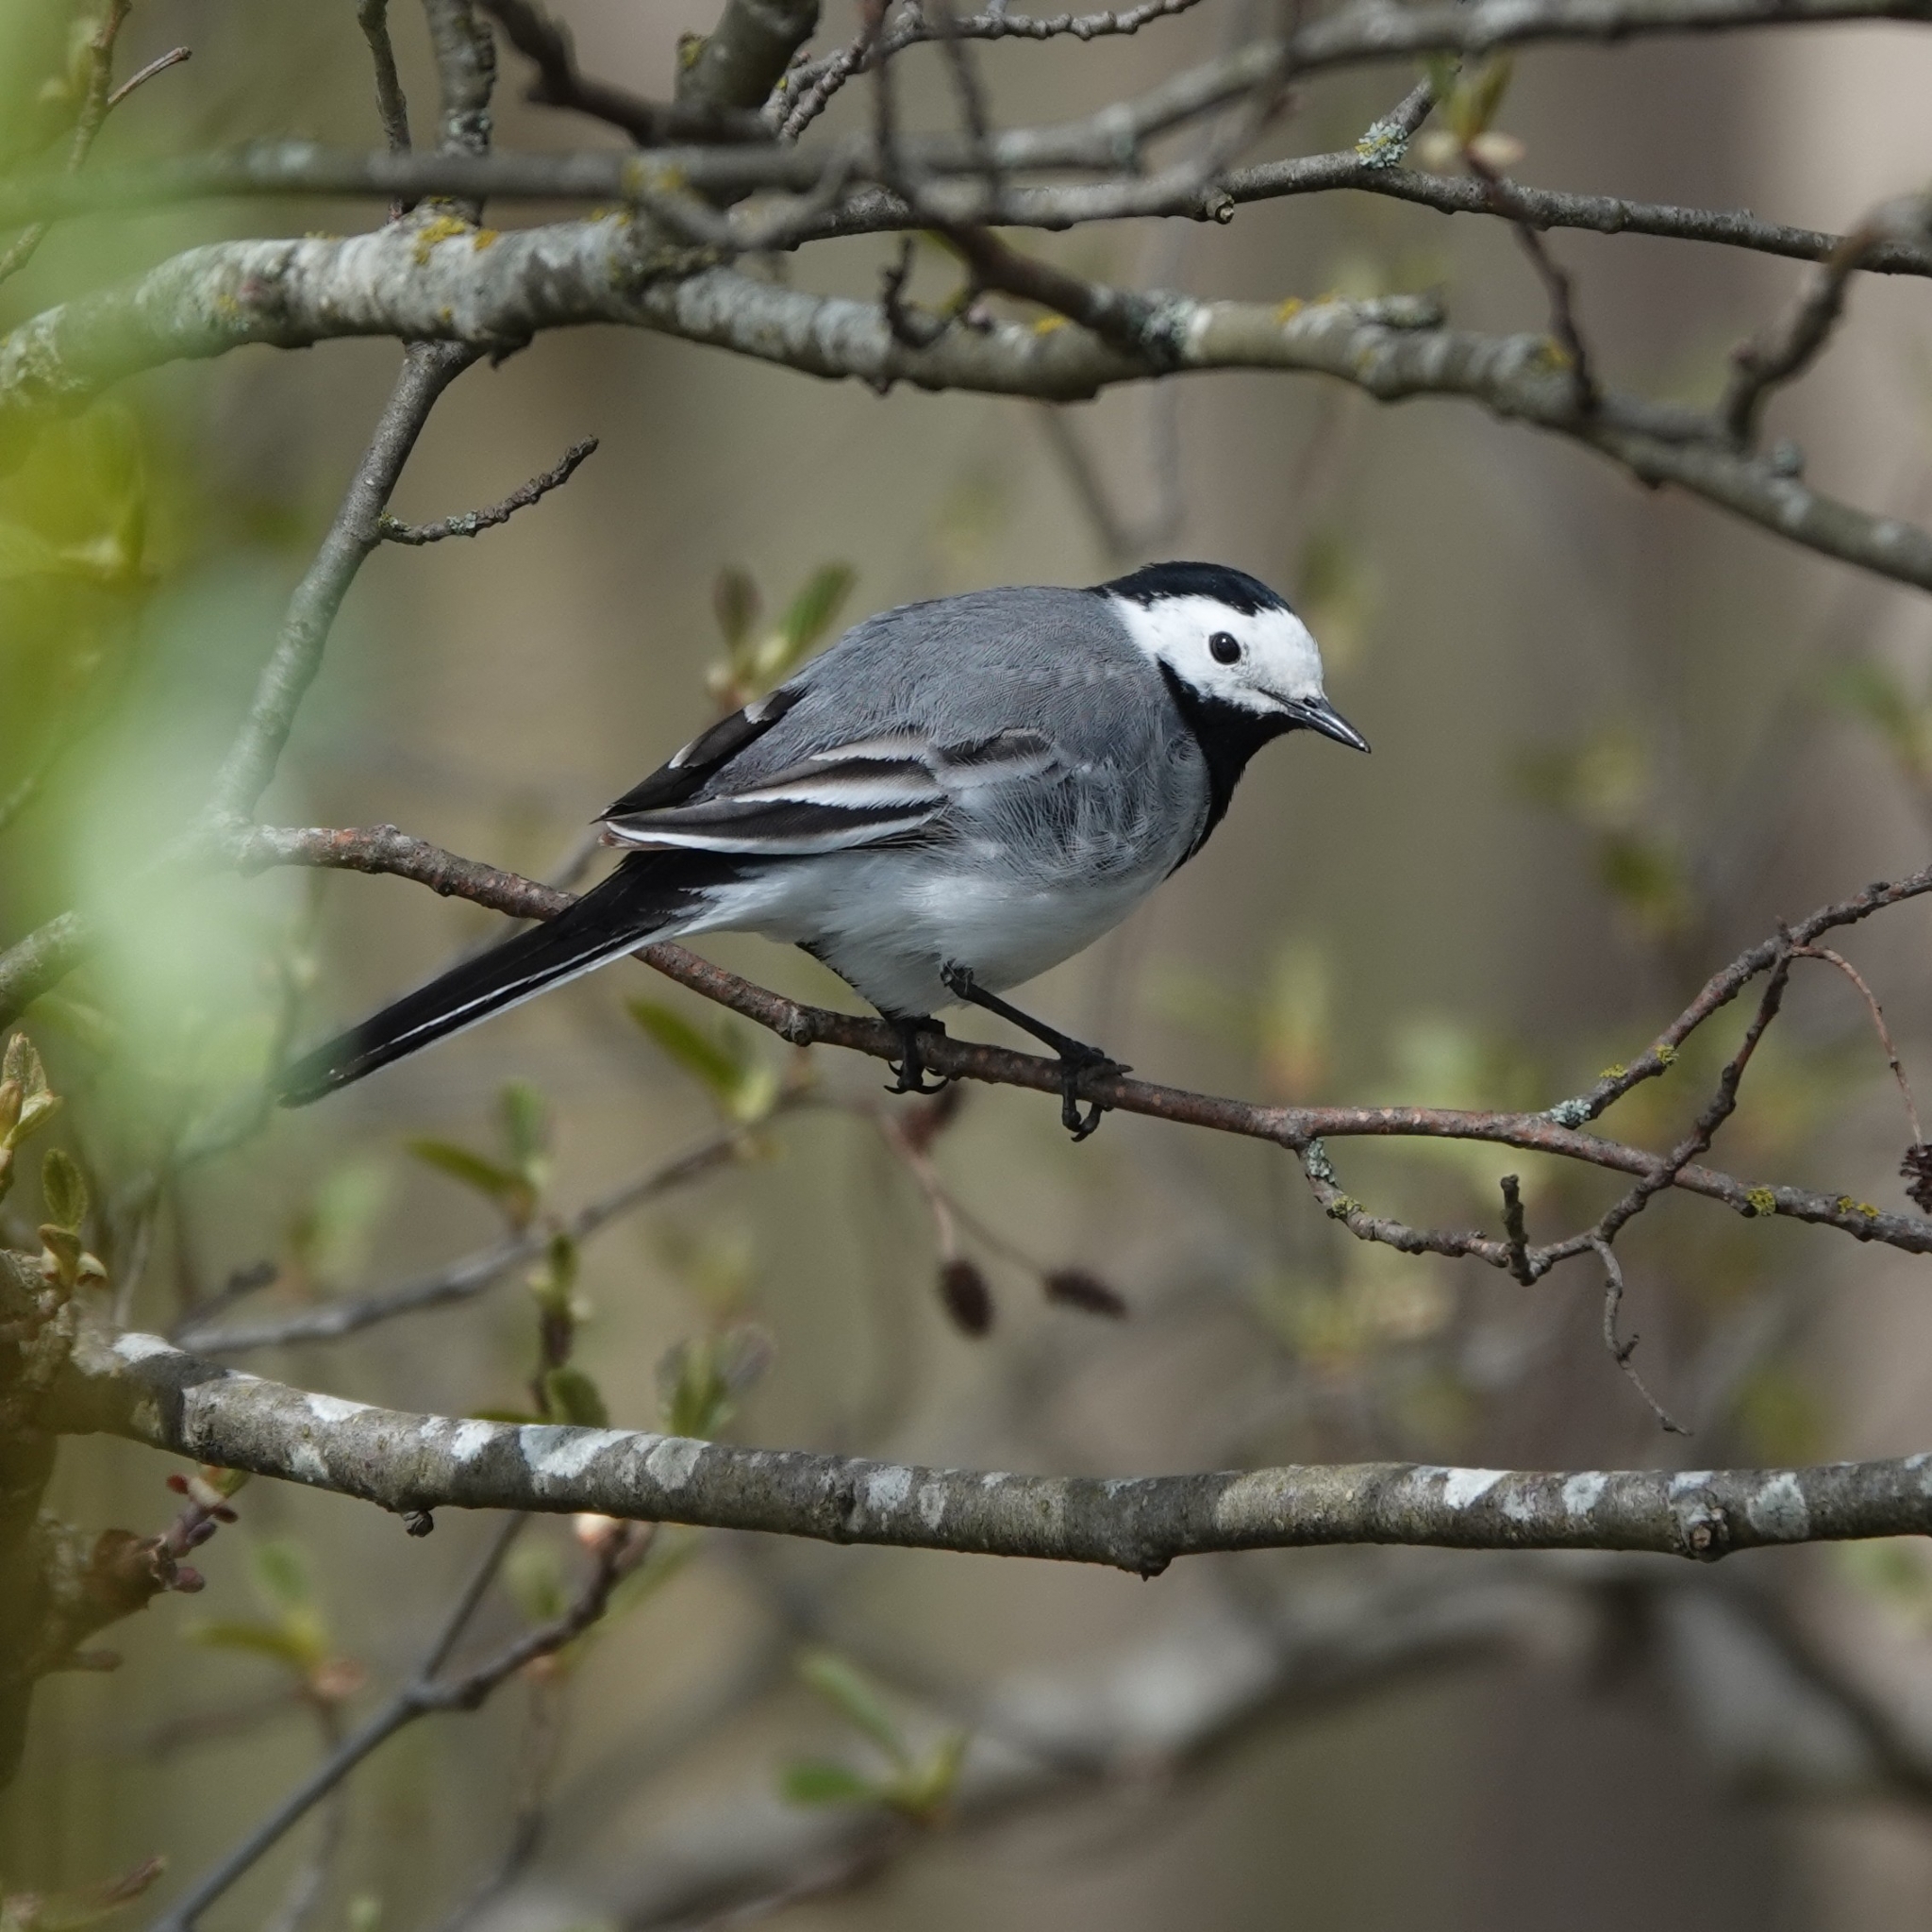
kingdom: Animalia
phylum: Chordata
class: Aves
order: Passeriformes
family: Motacillidae
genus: Motacilla
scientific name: Motacilla alba
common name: White wagtail
